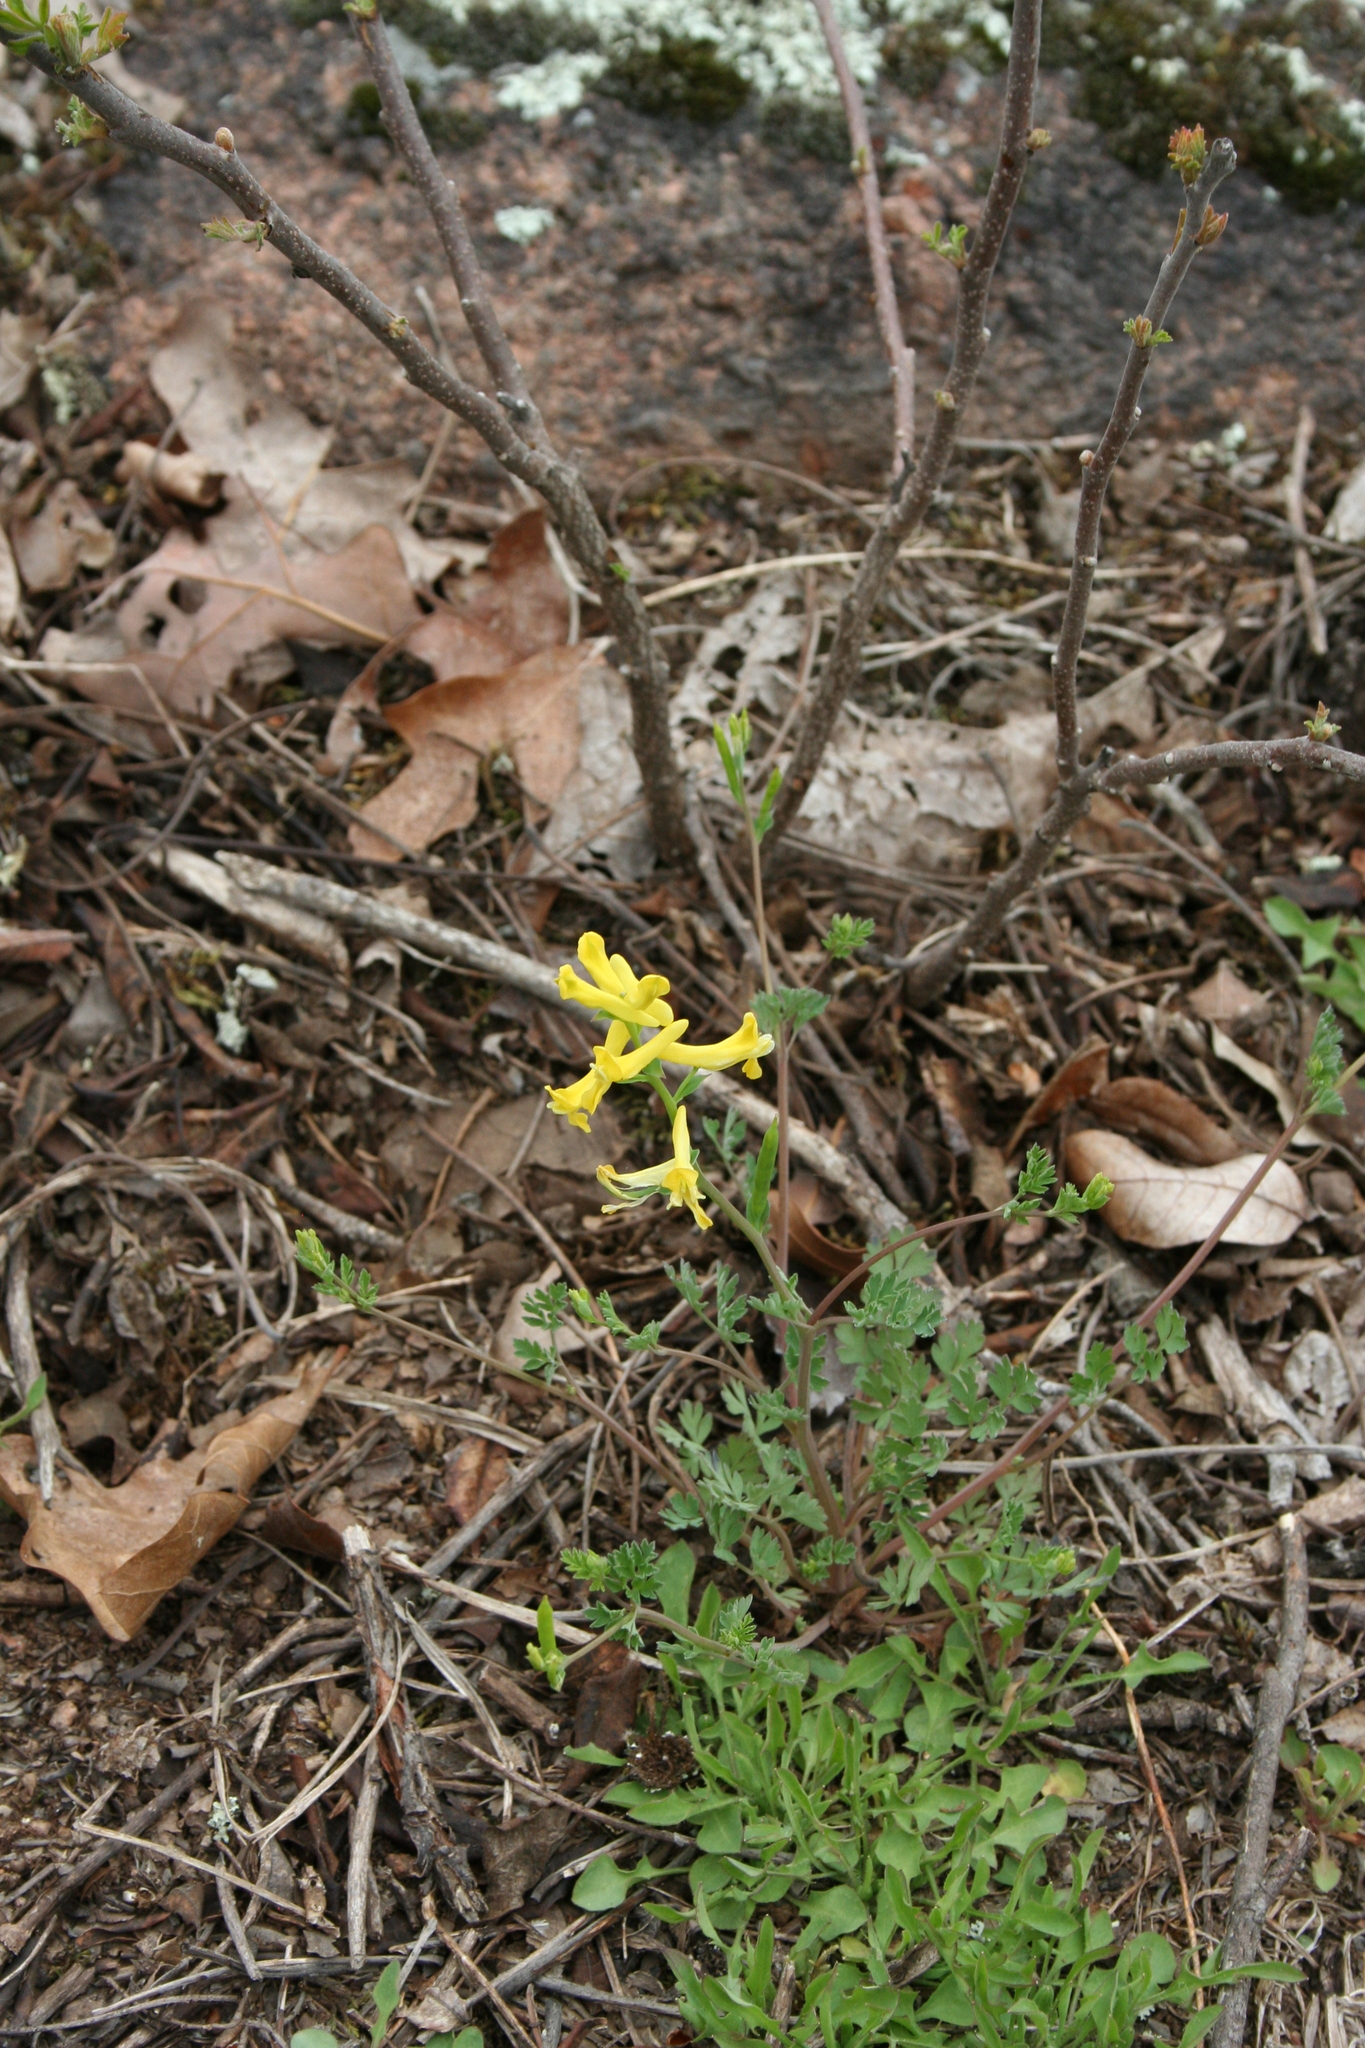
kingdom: Plantae
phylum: Tracheophyta
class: Magnoliopsida
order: Ranunculales
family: Papaveraceae
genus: Corydalis
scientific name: Corydalis flavula
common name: Yellow corydalis
